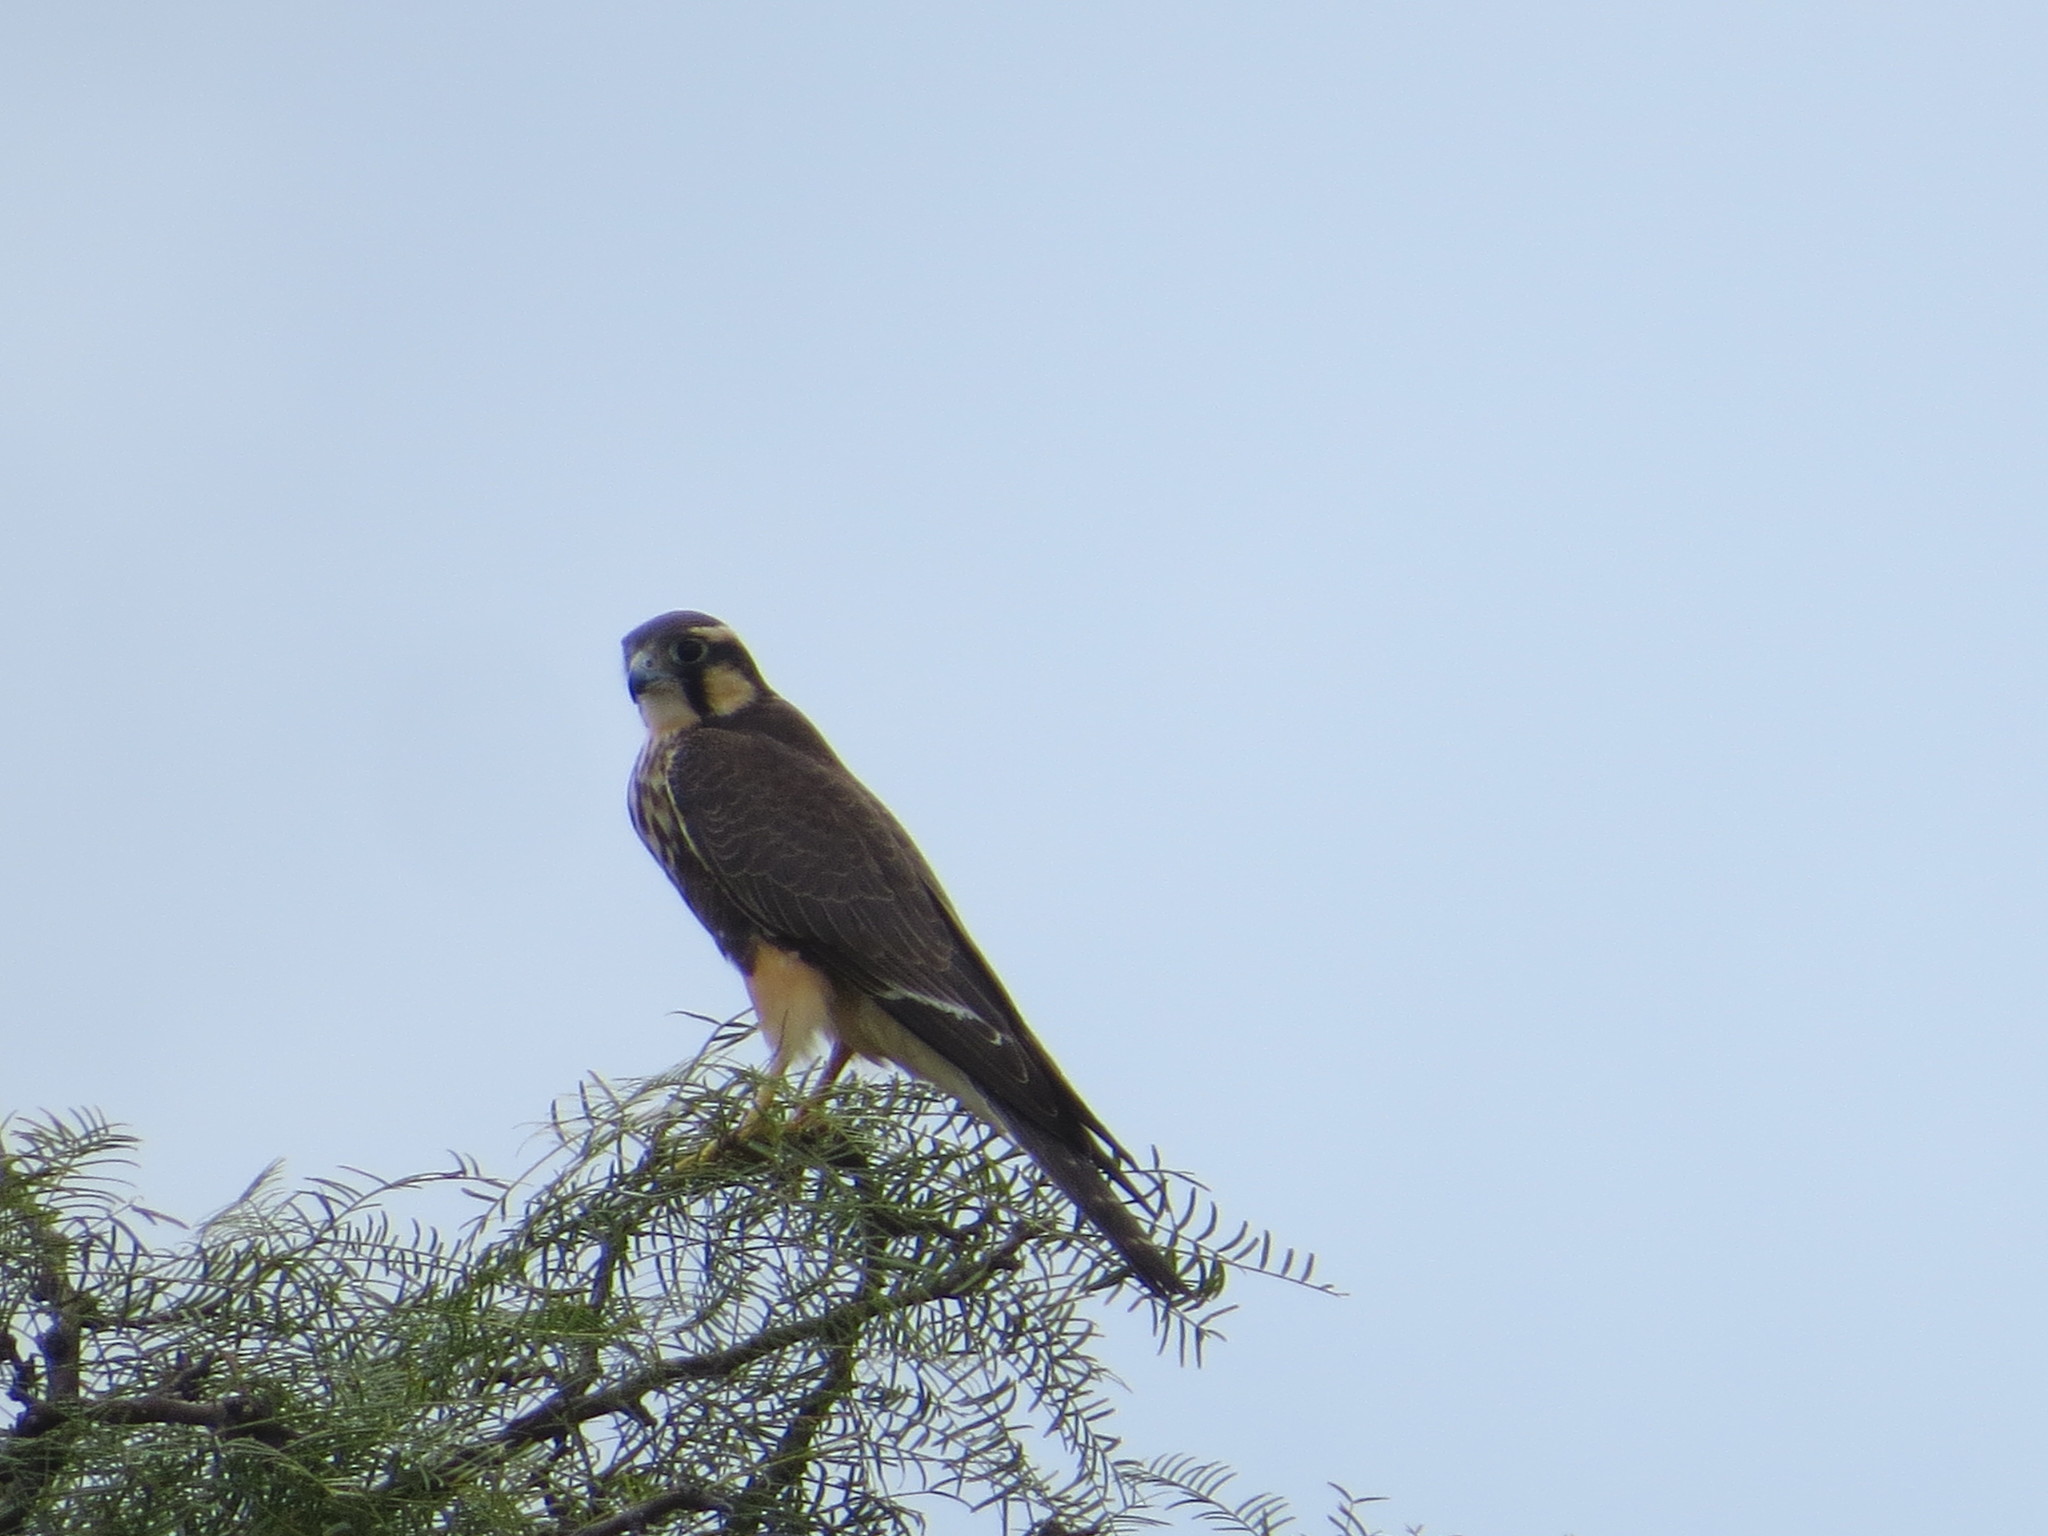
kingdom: Animalia
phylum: Chordata
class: Aves
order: Falconiformes
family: Falconidae
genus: Falco
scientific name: Falco femoralis
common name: Aplomado falcon
